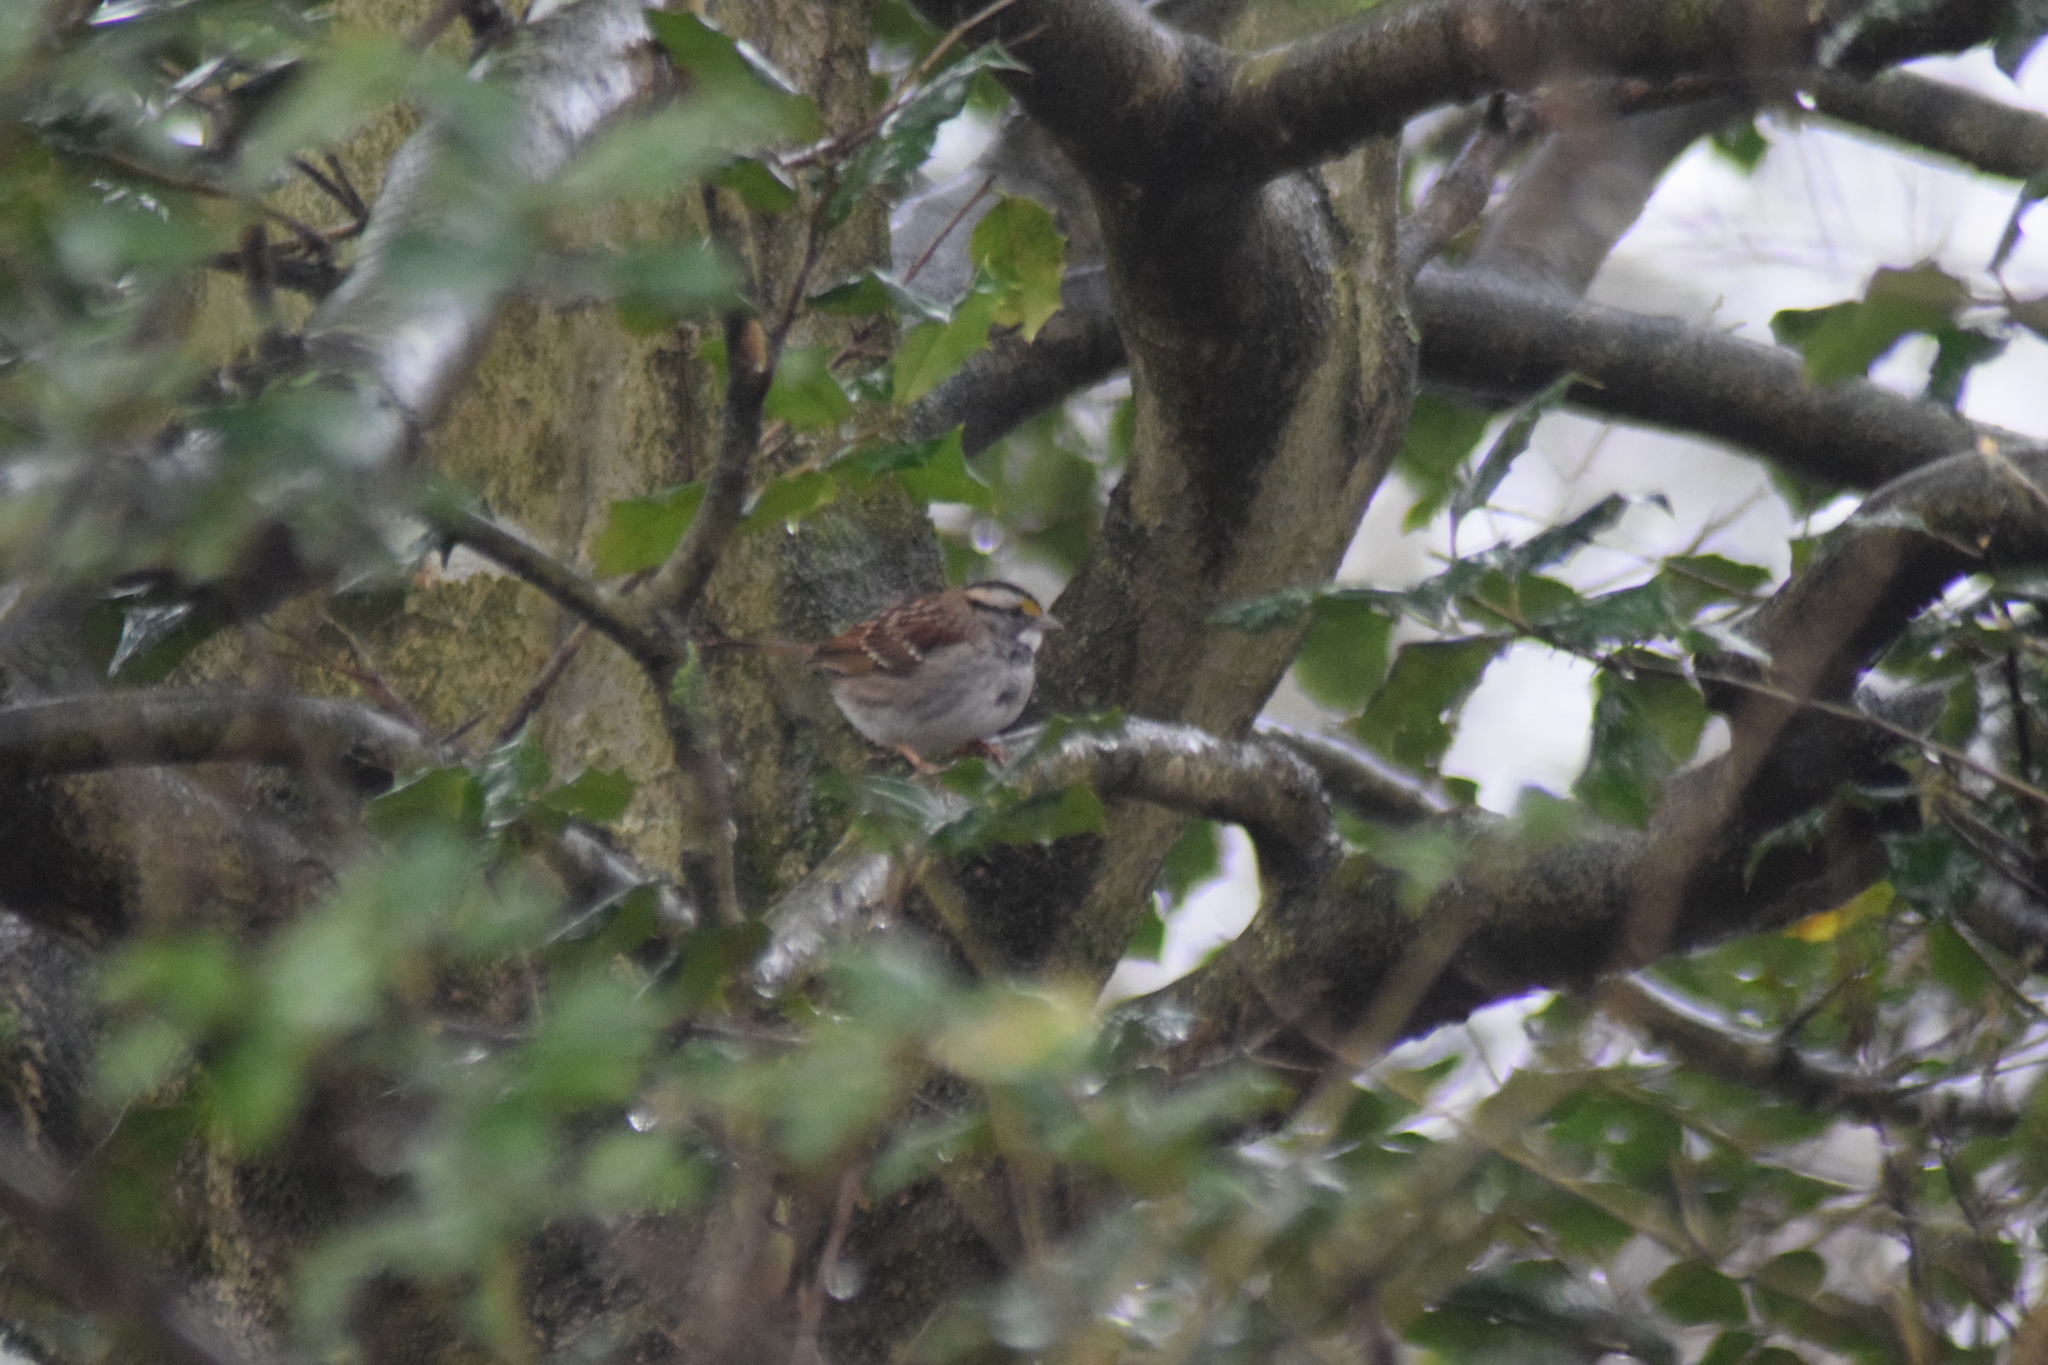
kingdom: Animalia
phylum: Chordata
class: Aves
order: Passeriformes
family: Passerellidae
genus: Zonotrichia
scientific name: Zonotrichia albicollis
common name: White-throated sparrow
